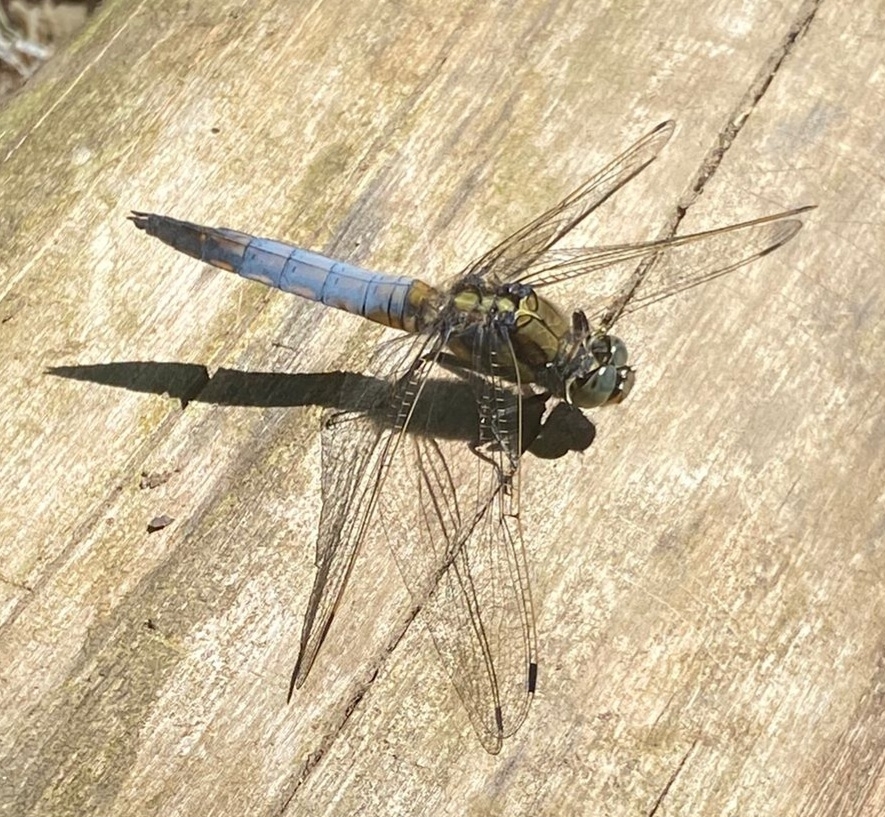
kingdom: Animalia
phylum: Arthropoda
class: Insecta
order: Odonata
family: Libellulidae
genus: Orthetrum
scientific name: Orthetrum cancellatum
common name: Black-tailed skimmer
